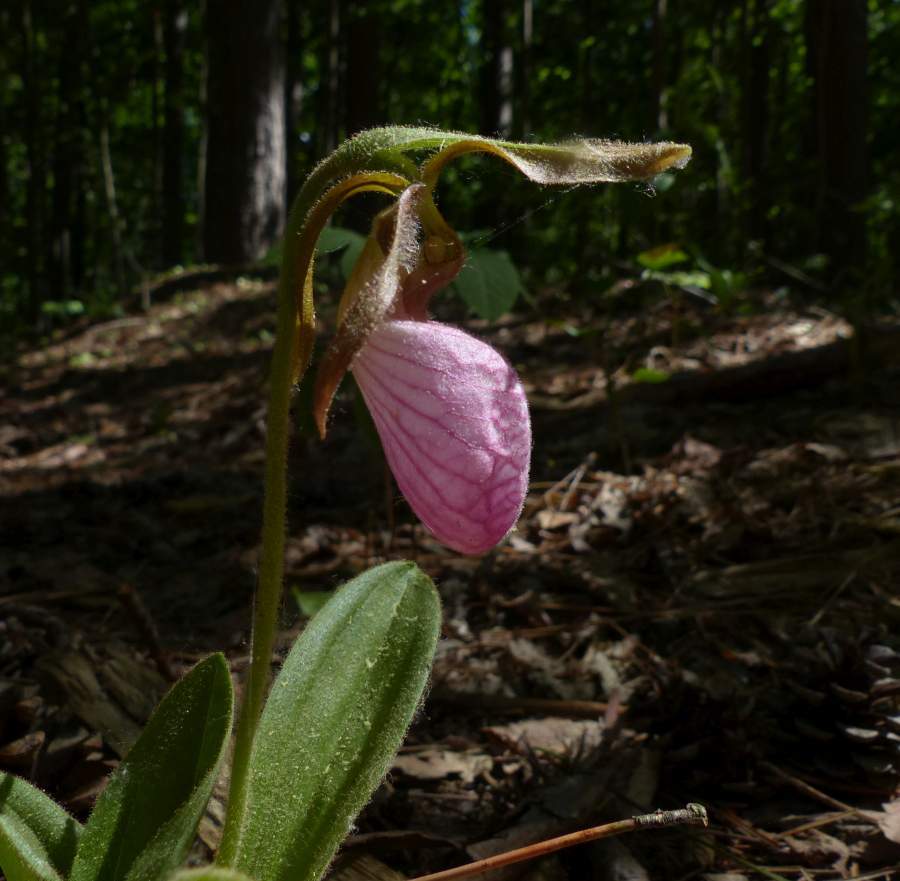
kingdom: Plantae
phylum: Tracheophyta
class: Liliopsida
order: Asparagales
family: Orchidaceae
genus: Cypripedium
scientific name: Cypripedium acaule
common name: Pink lady's-slipper
